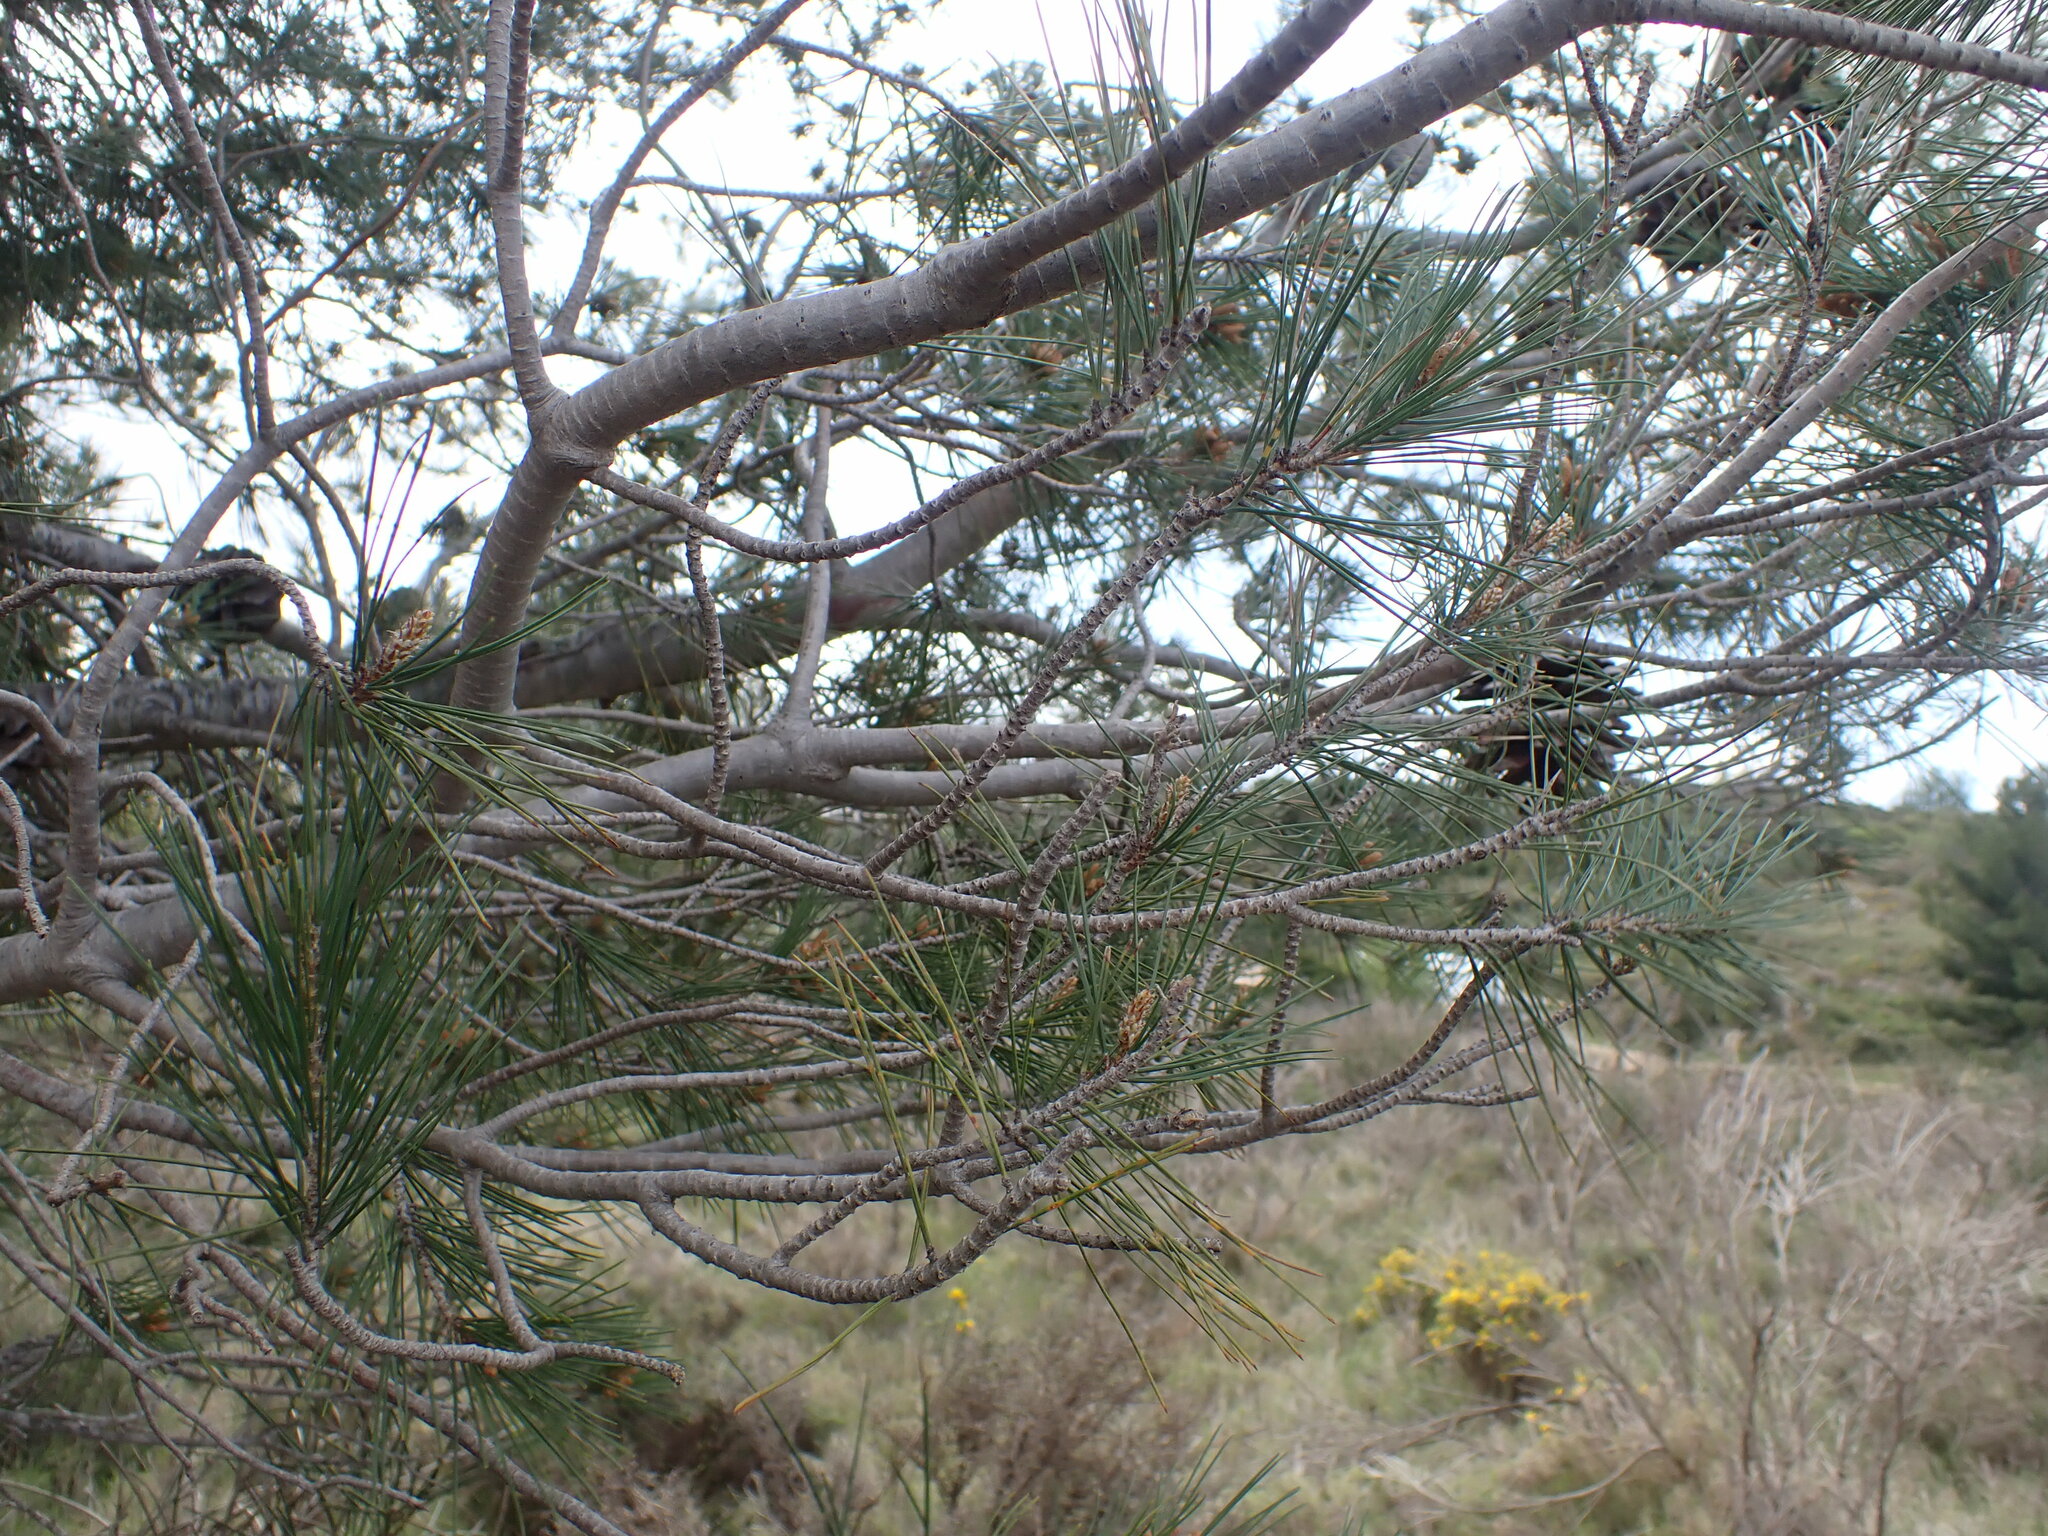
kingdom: Plantae
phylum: Tracheophyta
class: Pinopsida
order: Pinales
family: Pinaceae
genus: Pinus
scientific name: Pinus halepensis
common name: Aleppo pine
